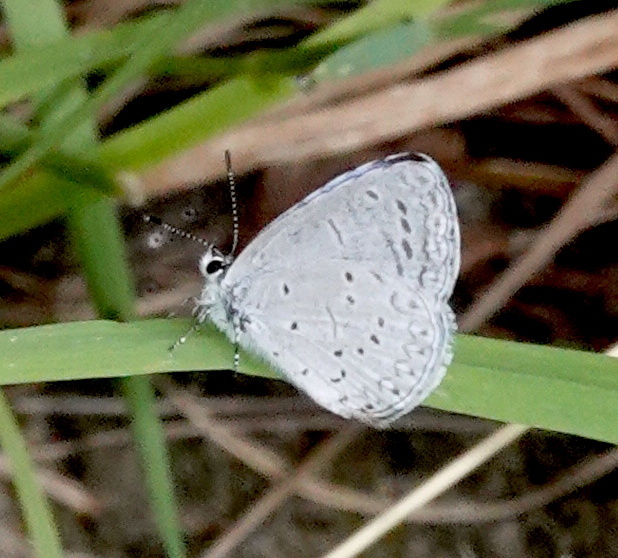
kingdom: Animalia
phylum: Arthropoda
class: Insecta
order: Lepidoptera
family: Lycaenidae
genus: Celastrina
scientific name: Celastrina ladon
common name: Spring azure
